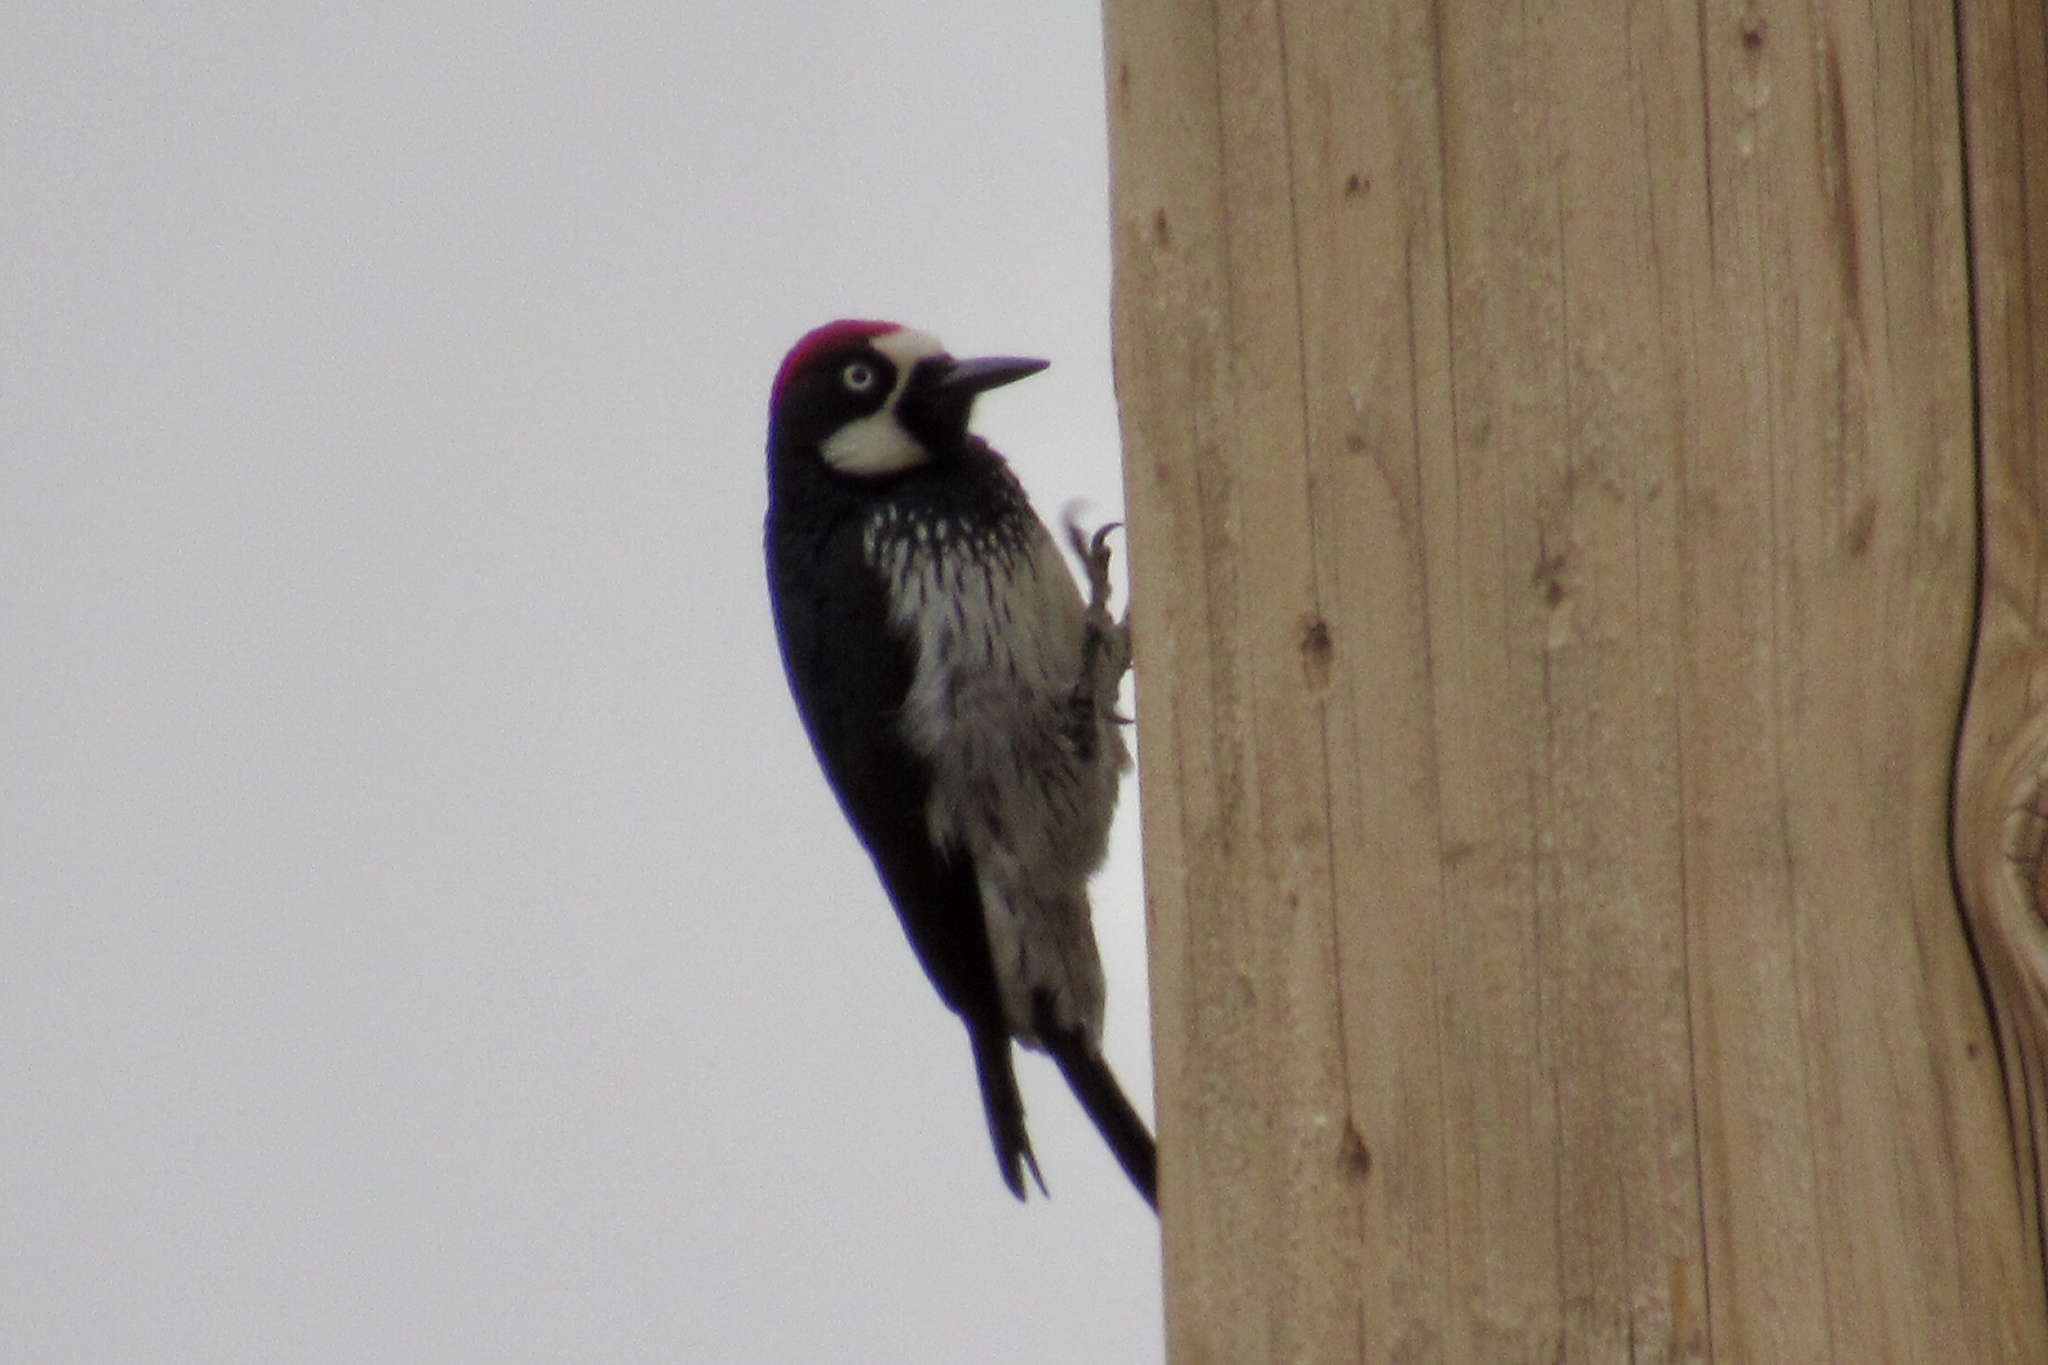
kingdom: Animalia
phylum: Chordata
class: Aves
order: Piciformes
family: Picidae
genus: Melanerpes
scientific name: Melanerpes formicivorus
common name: Acorn woodpecker
